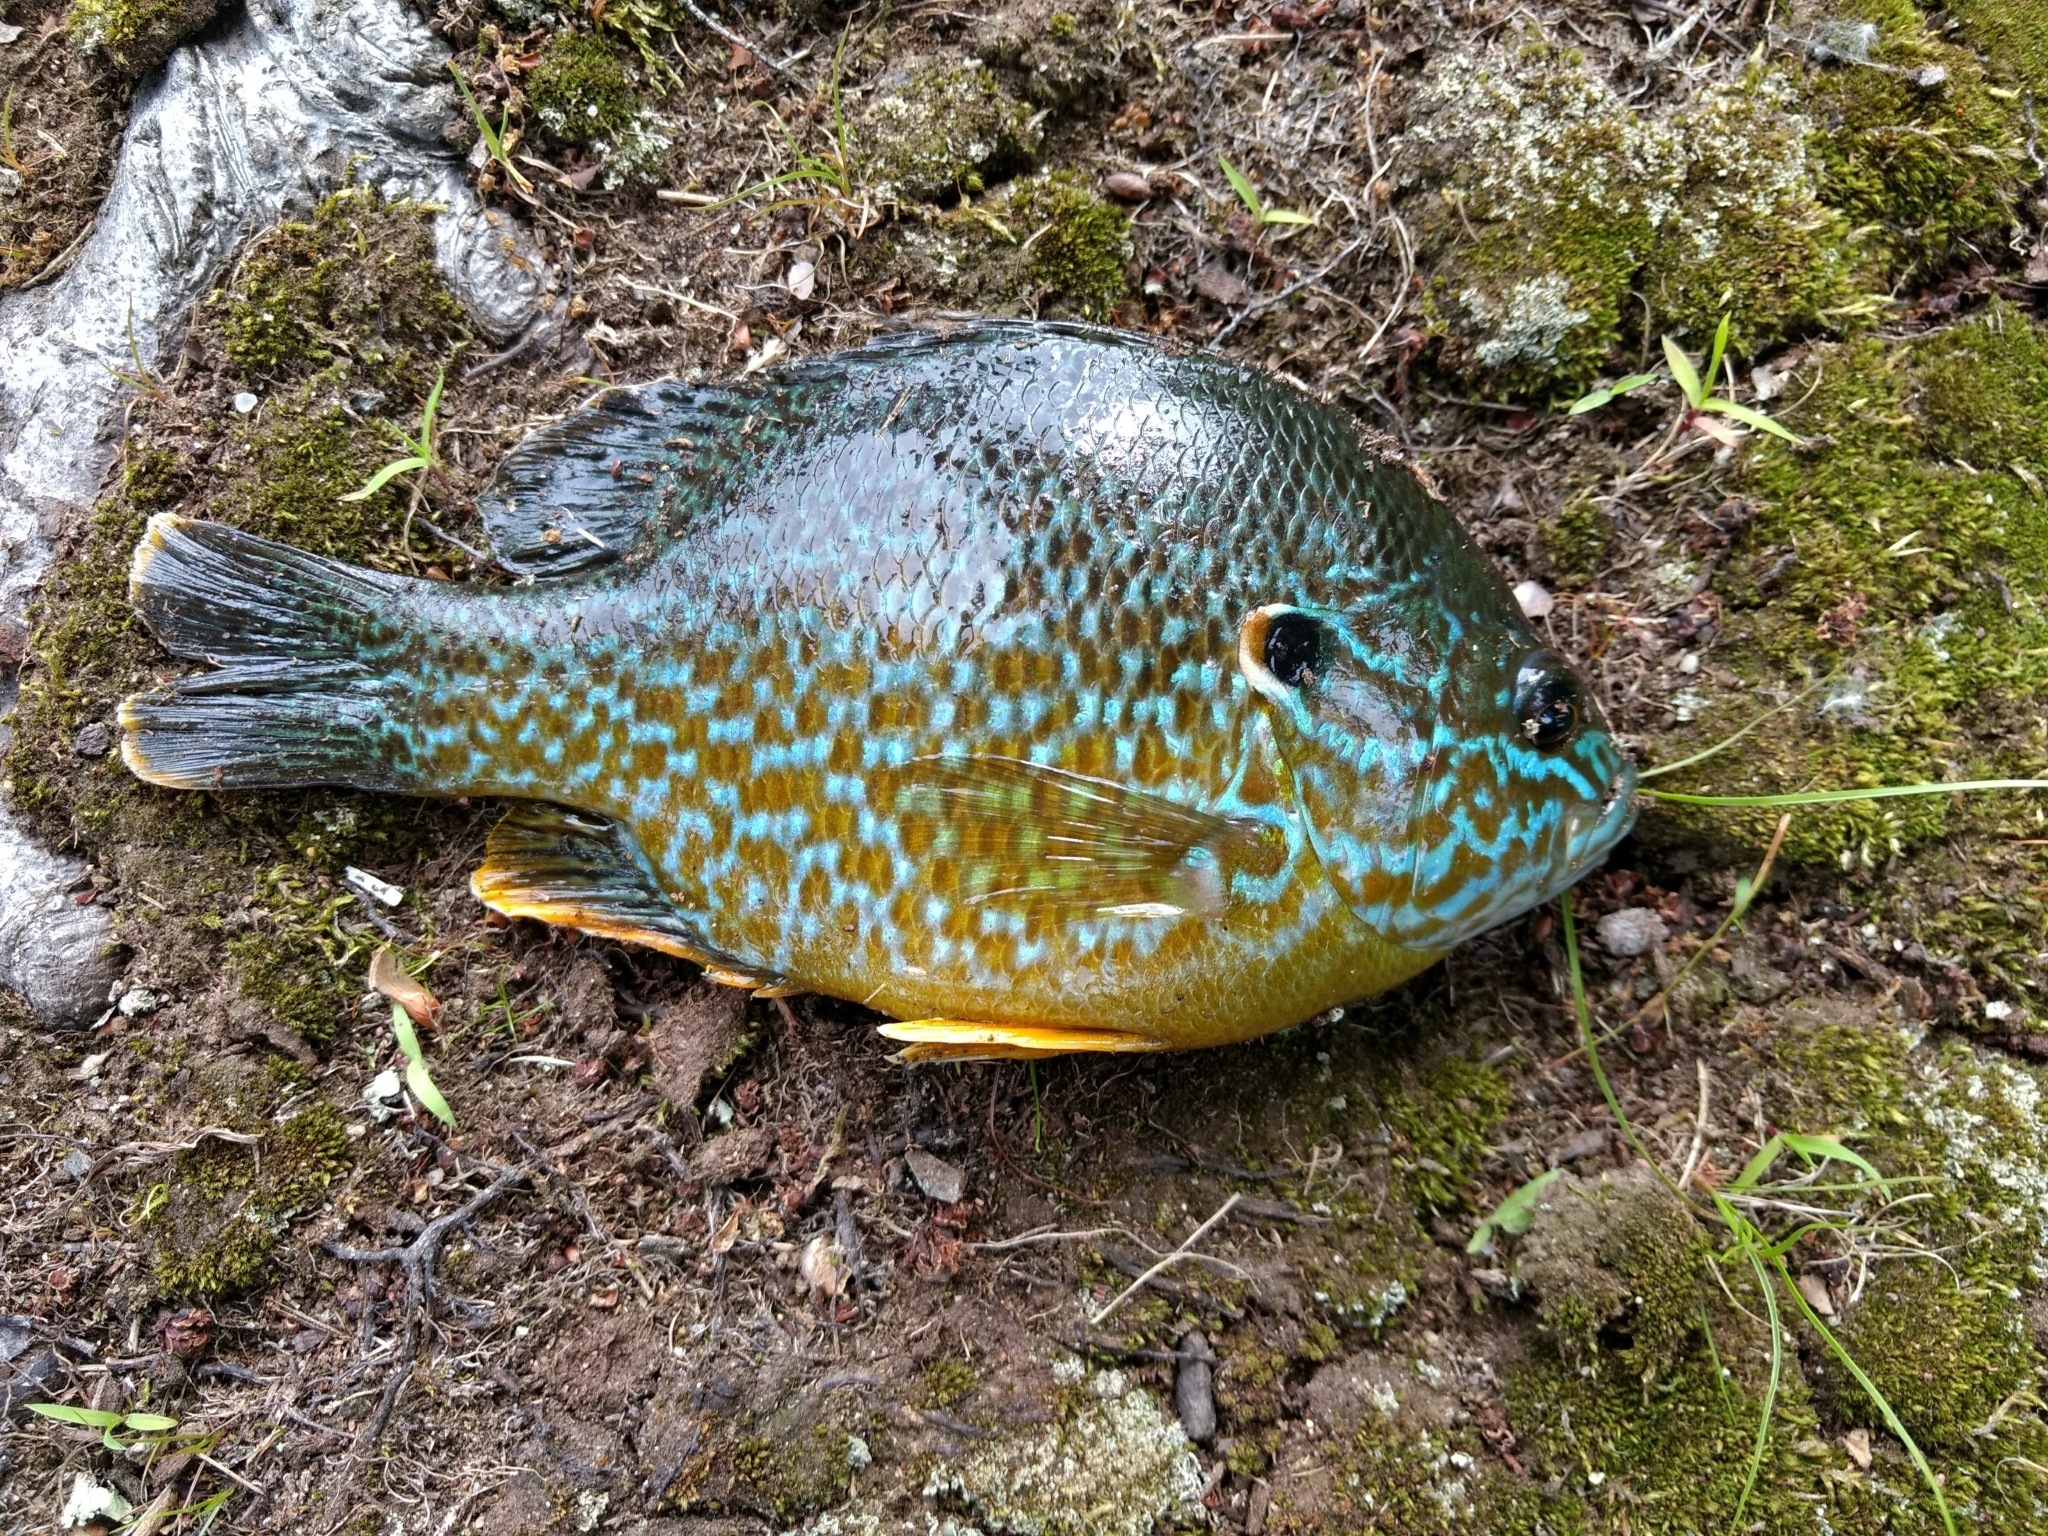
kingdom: Animalia
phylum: Chordata
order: Perciformes
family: Centrarchidae
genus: Lepomis
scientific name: Lepomis
